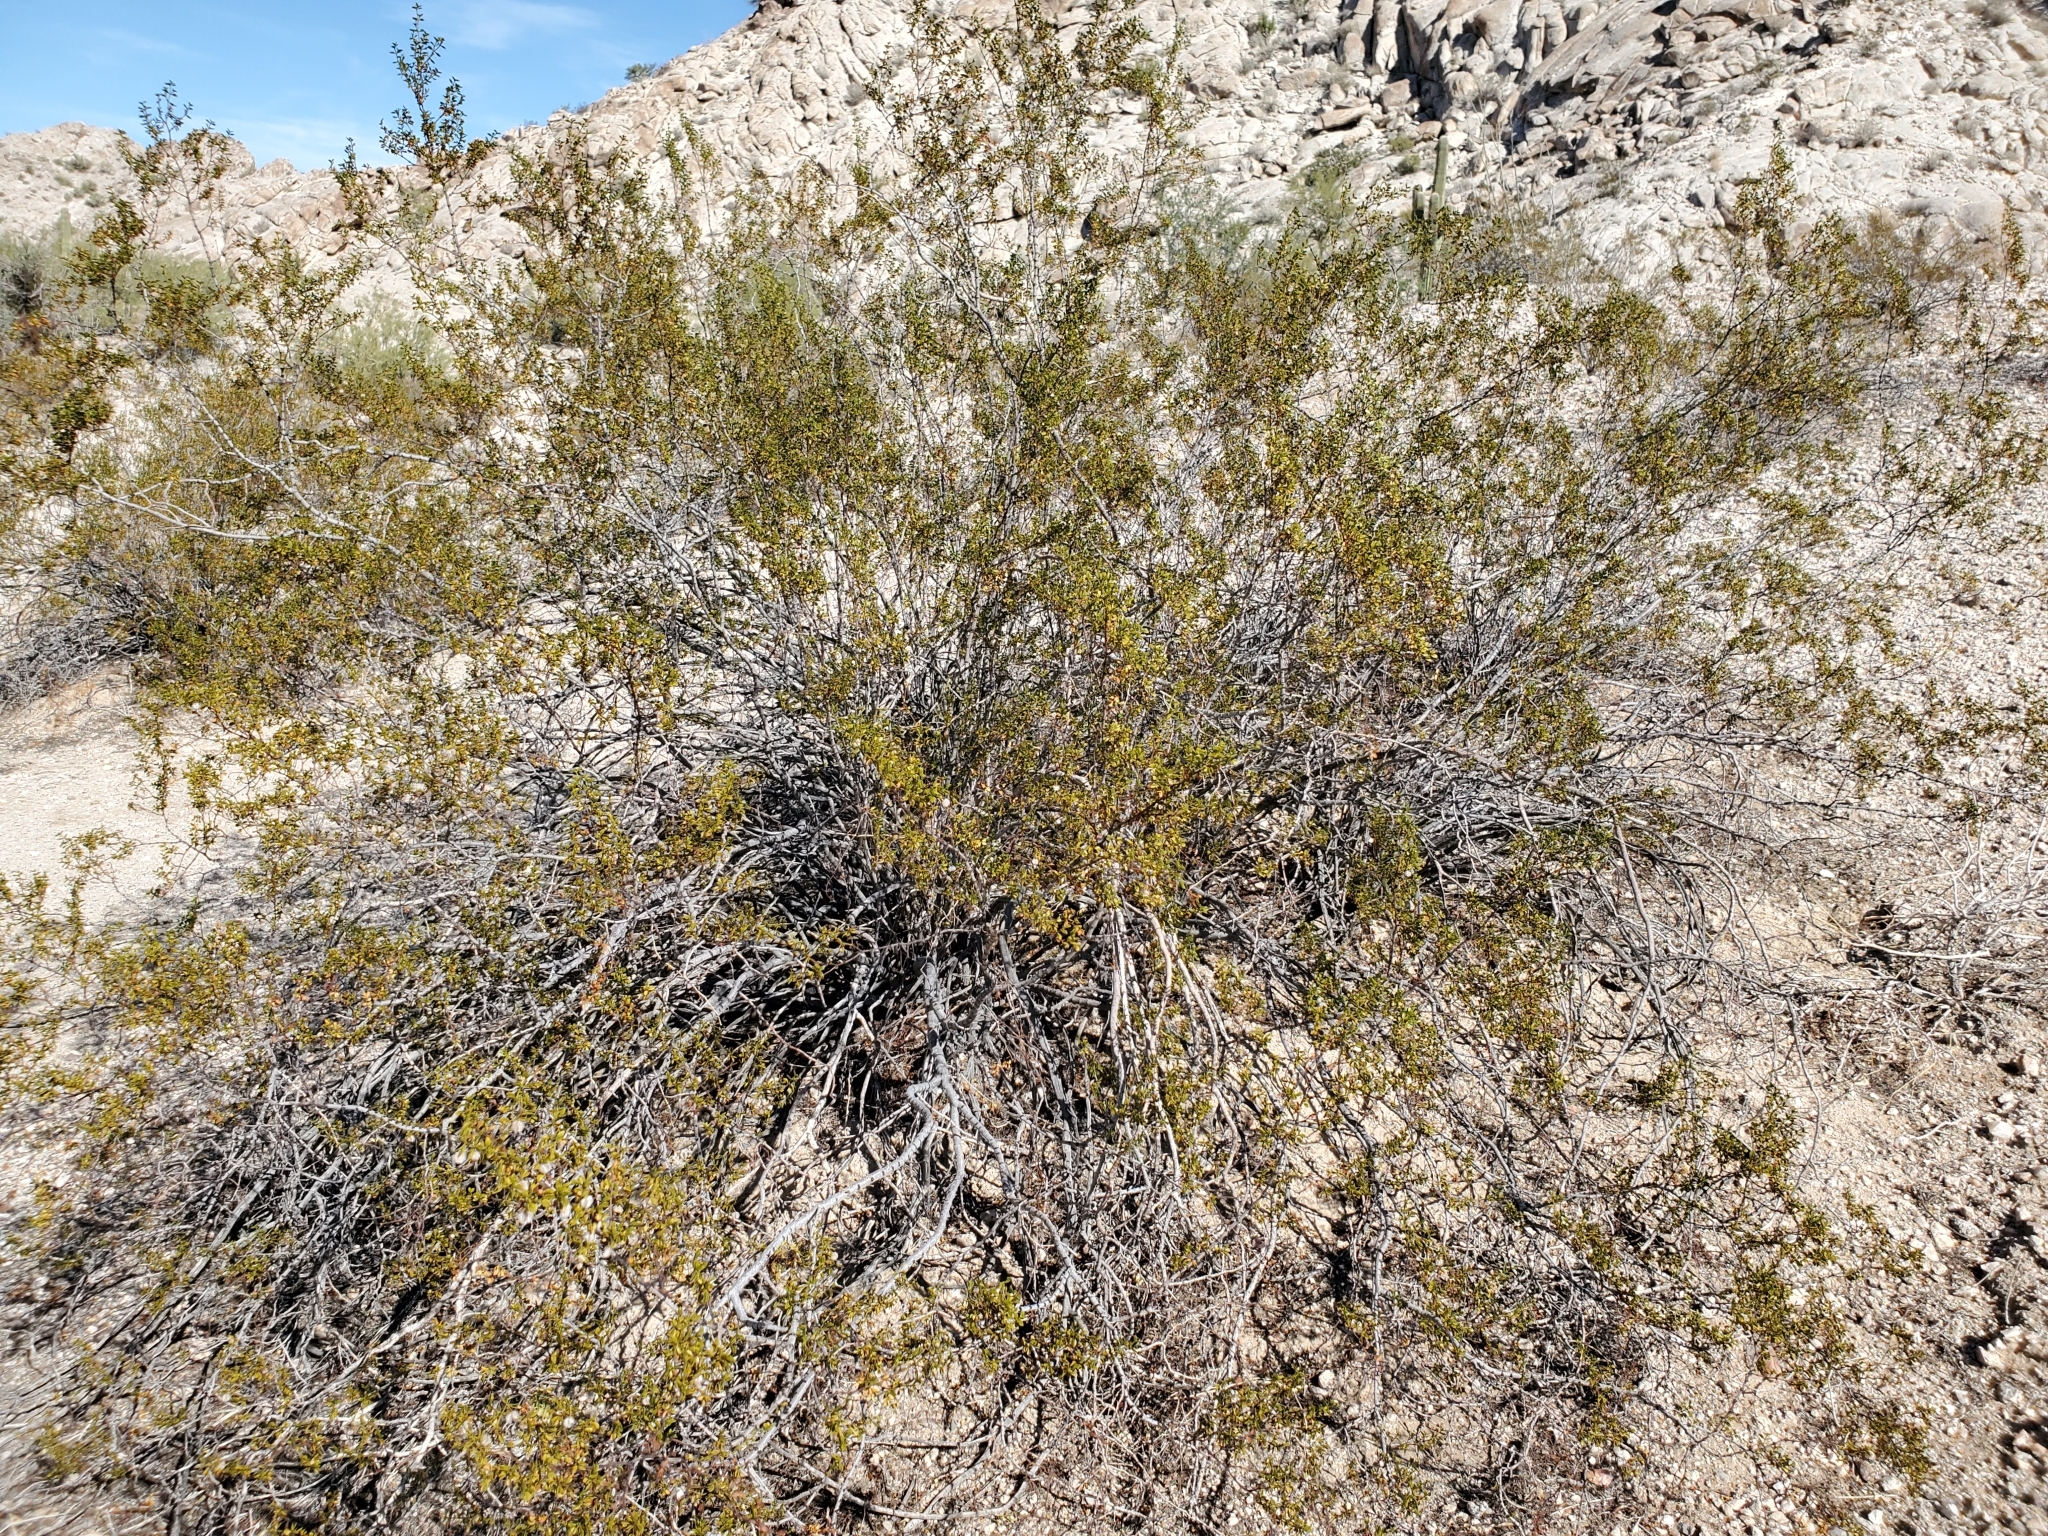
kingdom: Plantae
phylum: Tracheophyta
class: Magnoliopsida
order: Zygophyllales
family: Zygophyllaceae
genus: Larrea
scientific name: Larrea tridentata
